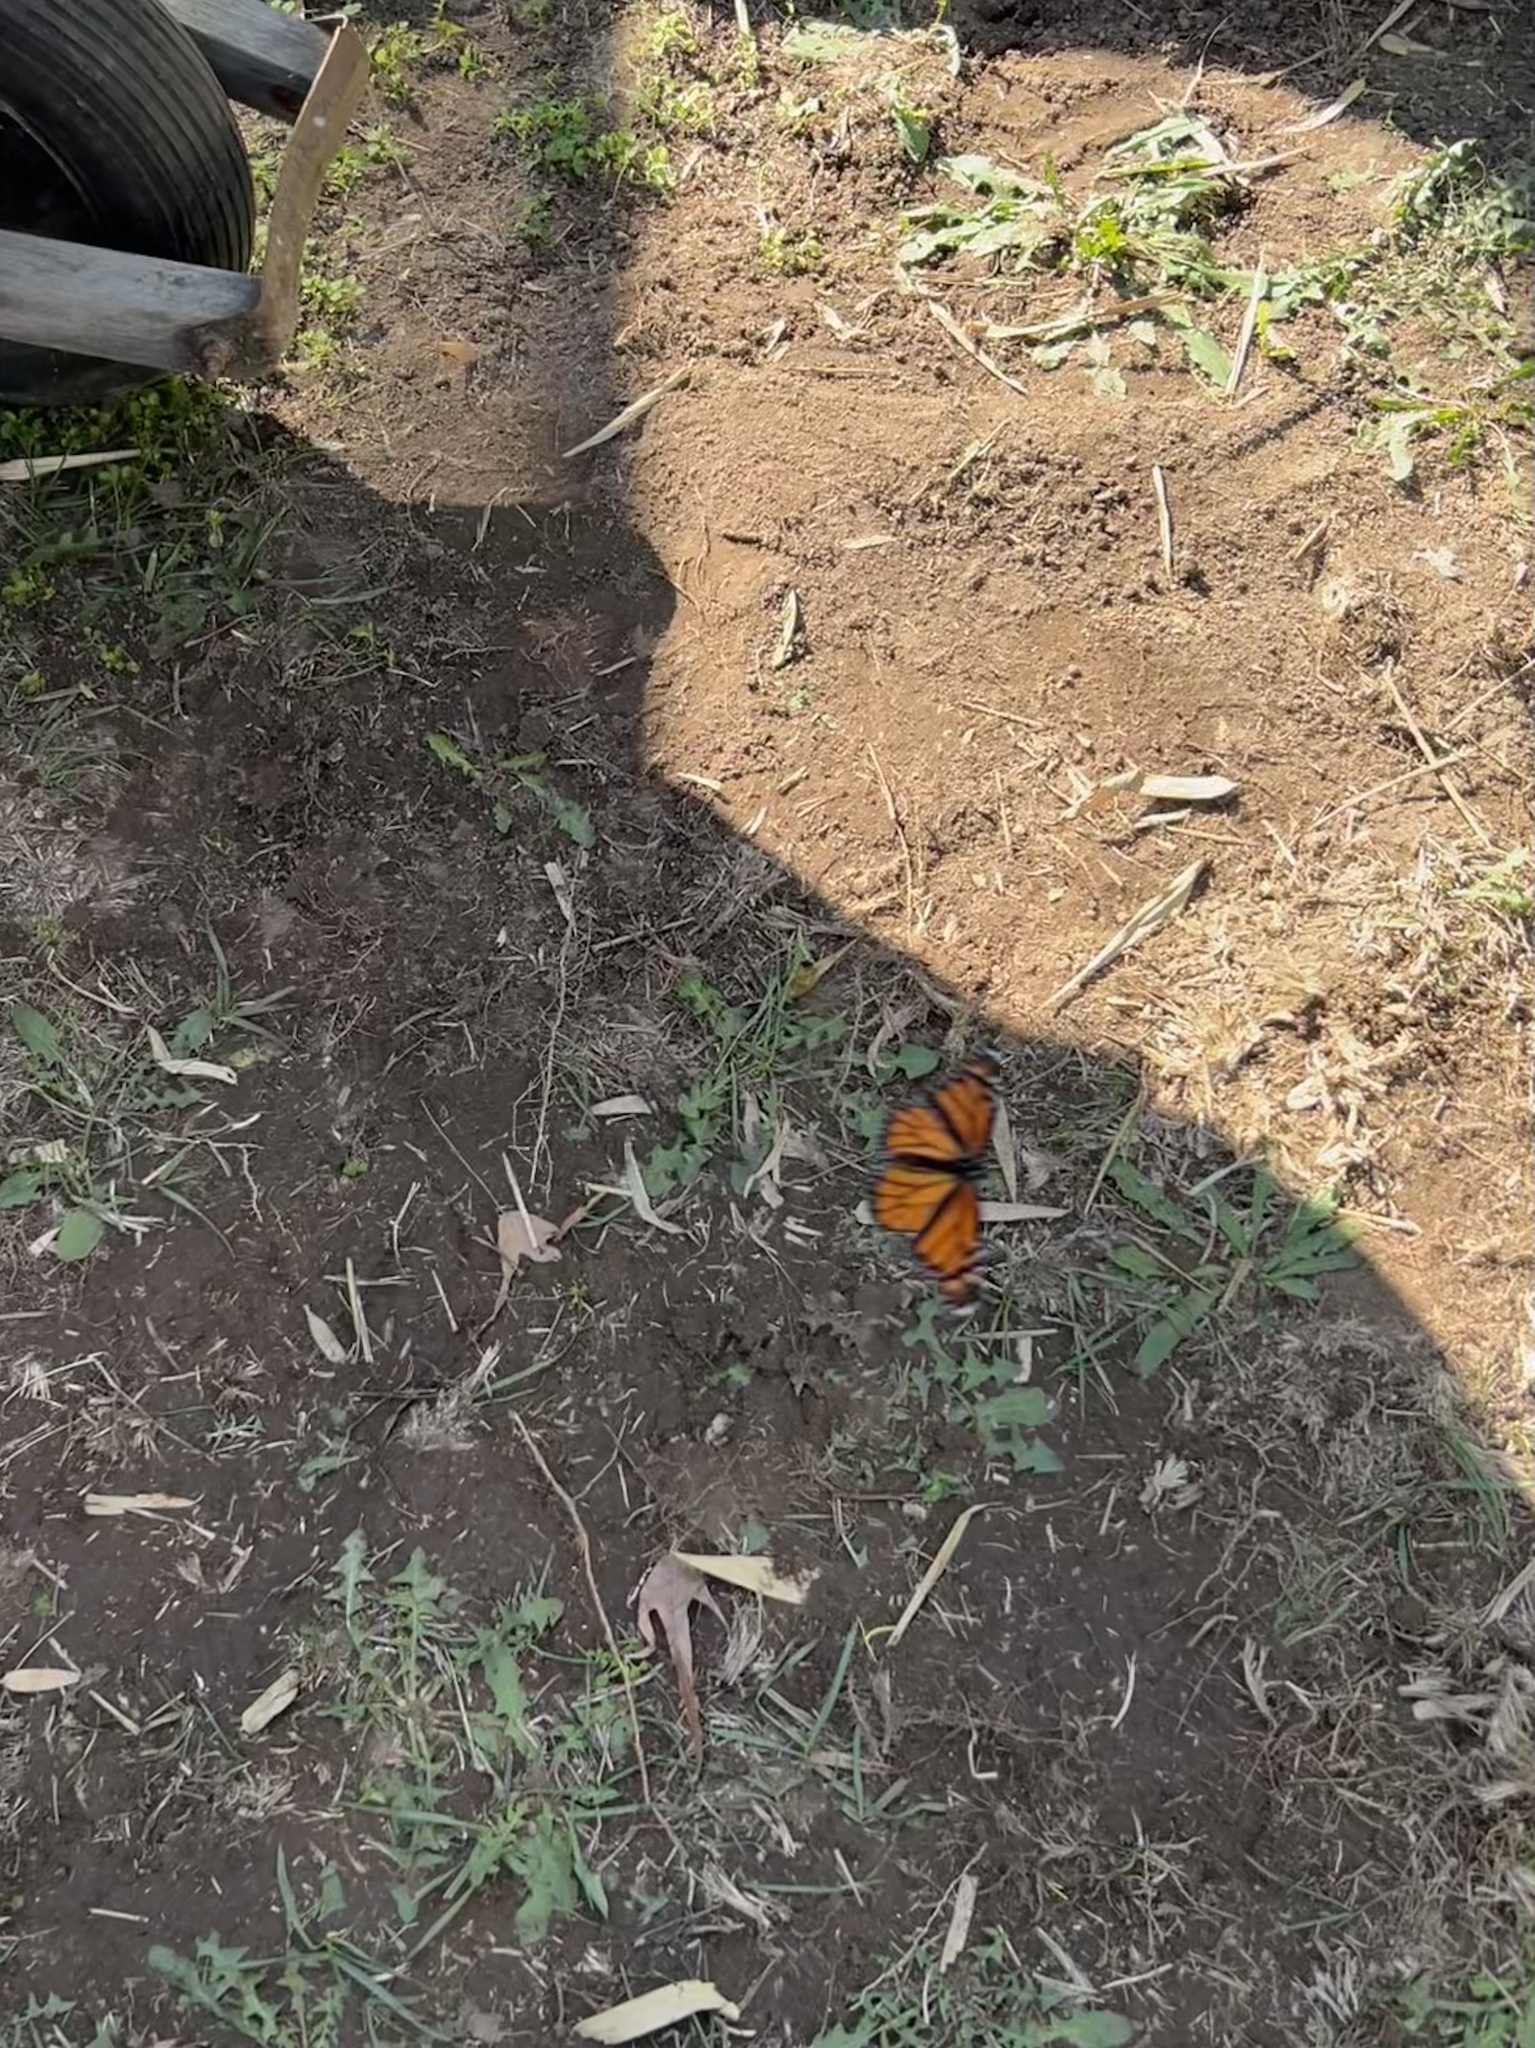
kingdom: Animalia
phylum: Arthropoda
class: Insecta
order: Lepidoptera
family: Nymphalidae
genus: Danaus
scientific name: Danaus plexippus
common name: Monarch
